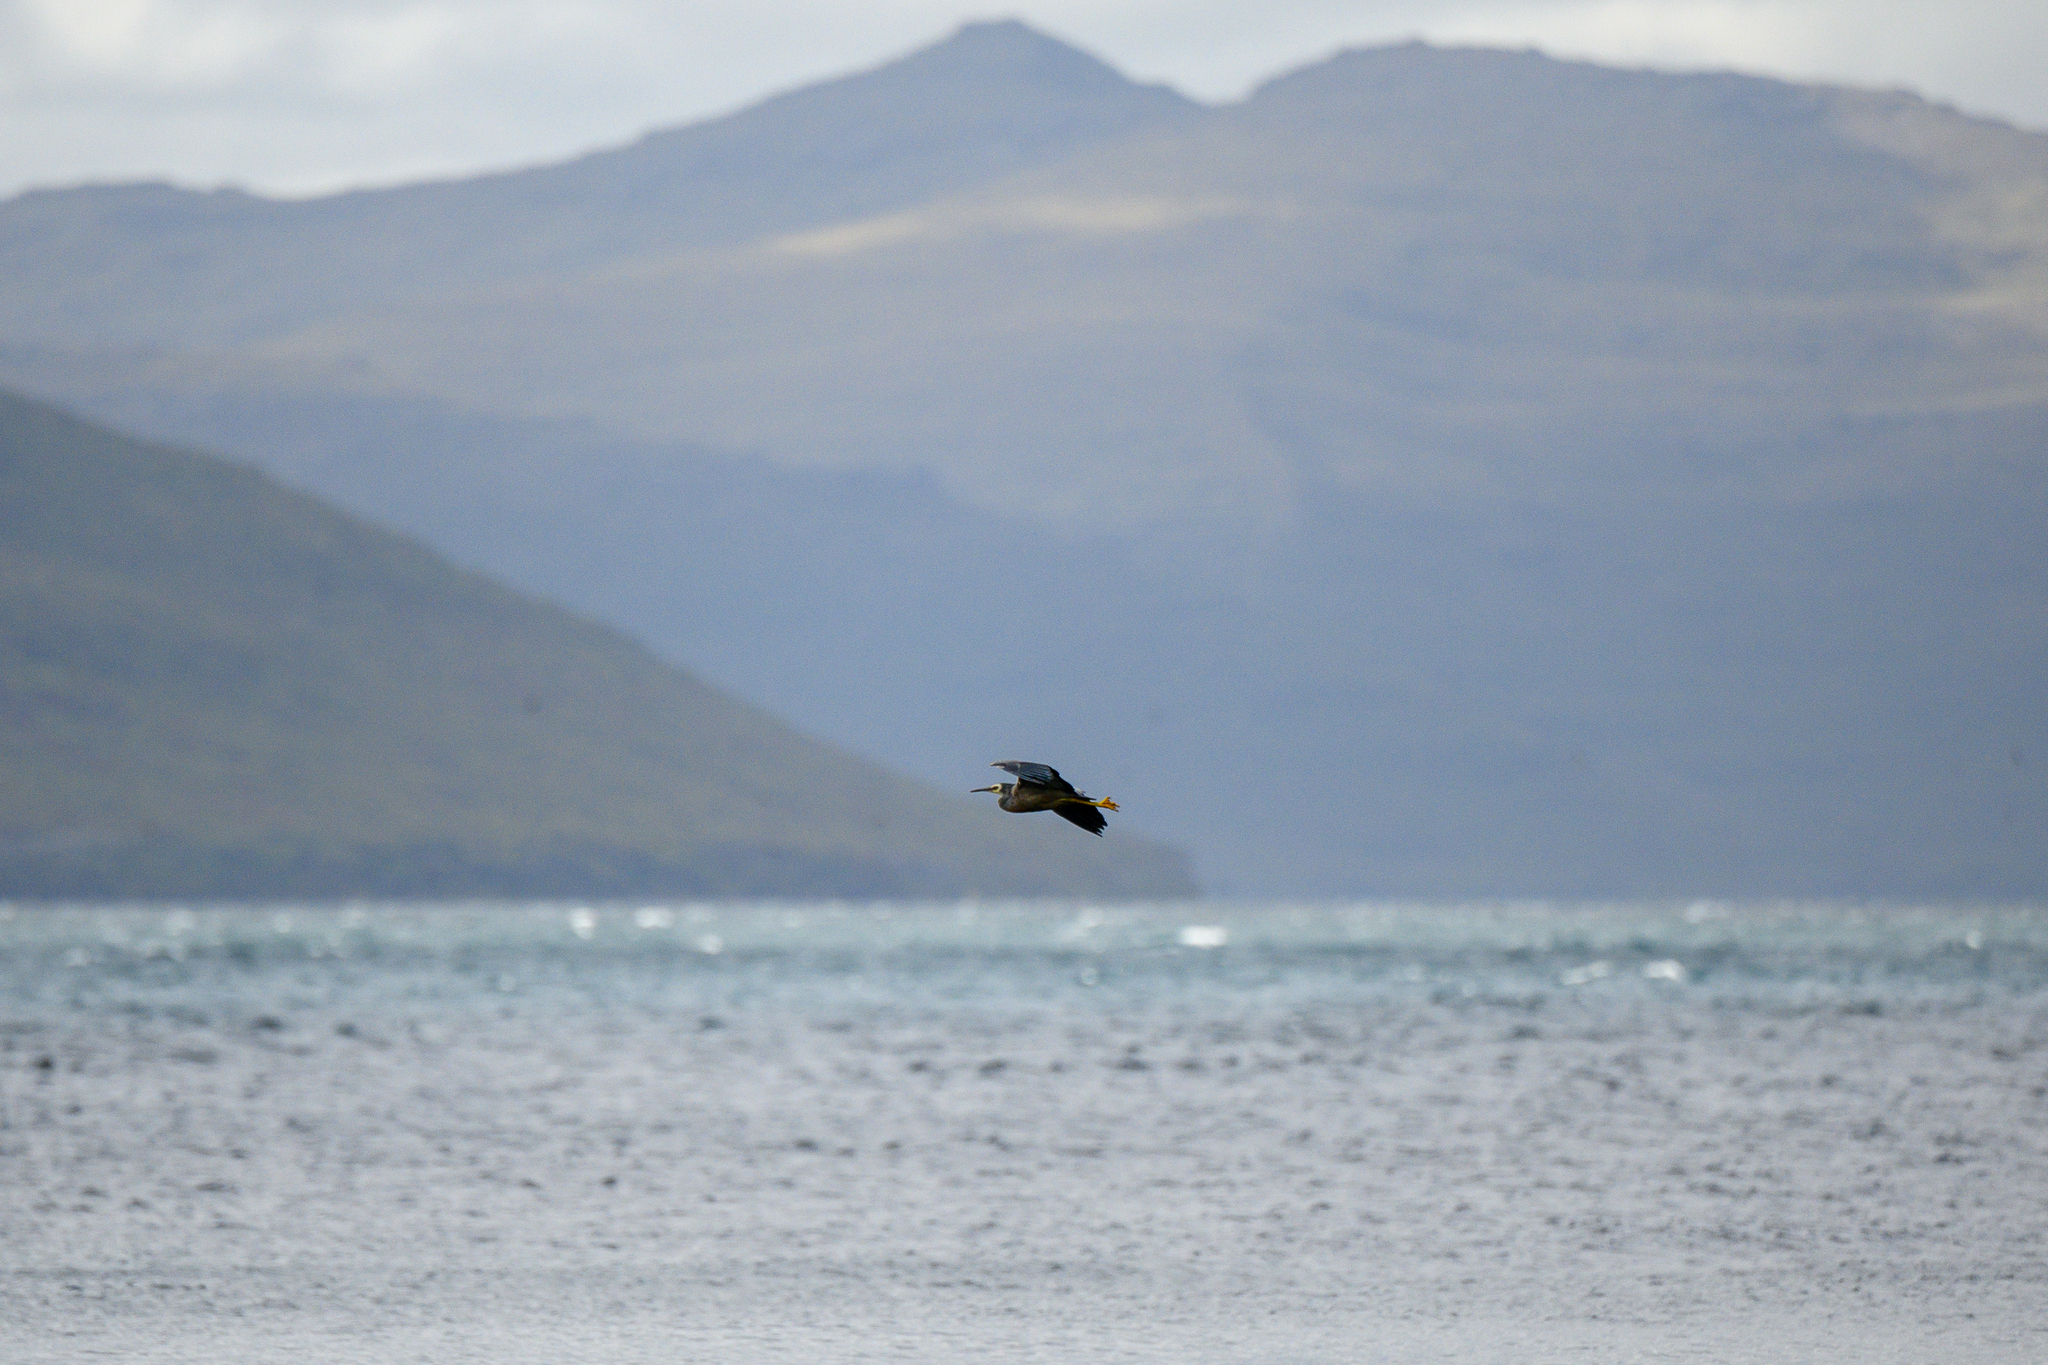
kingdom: Animalia
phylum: Chordata
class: Aves
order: Pelecaniformes
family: Ardeidae
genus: Egretta
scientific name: Egretta novaehollandiae
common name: White-faced heron
